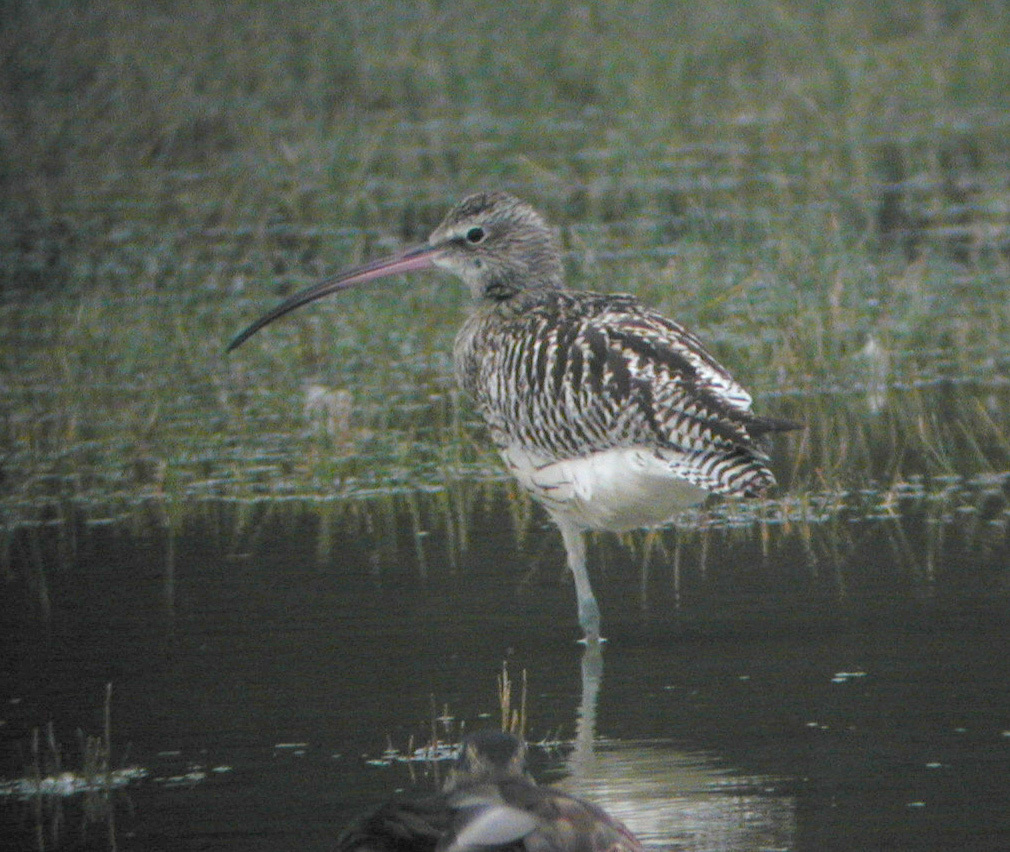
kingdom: Animalia
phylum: Chordata
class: Aves
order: Charadriiformes
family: Scolopacidae
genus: Numenius
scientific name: Numenius arquata
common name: Eurasian curlew
